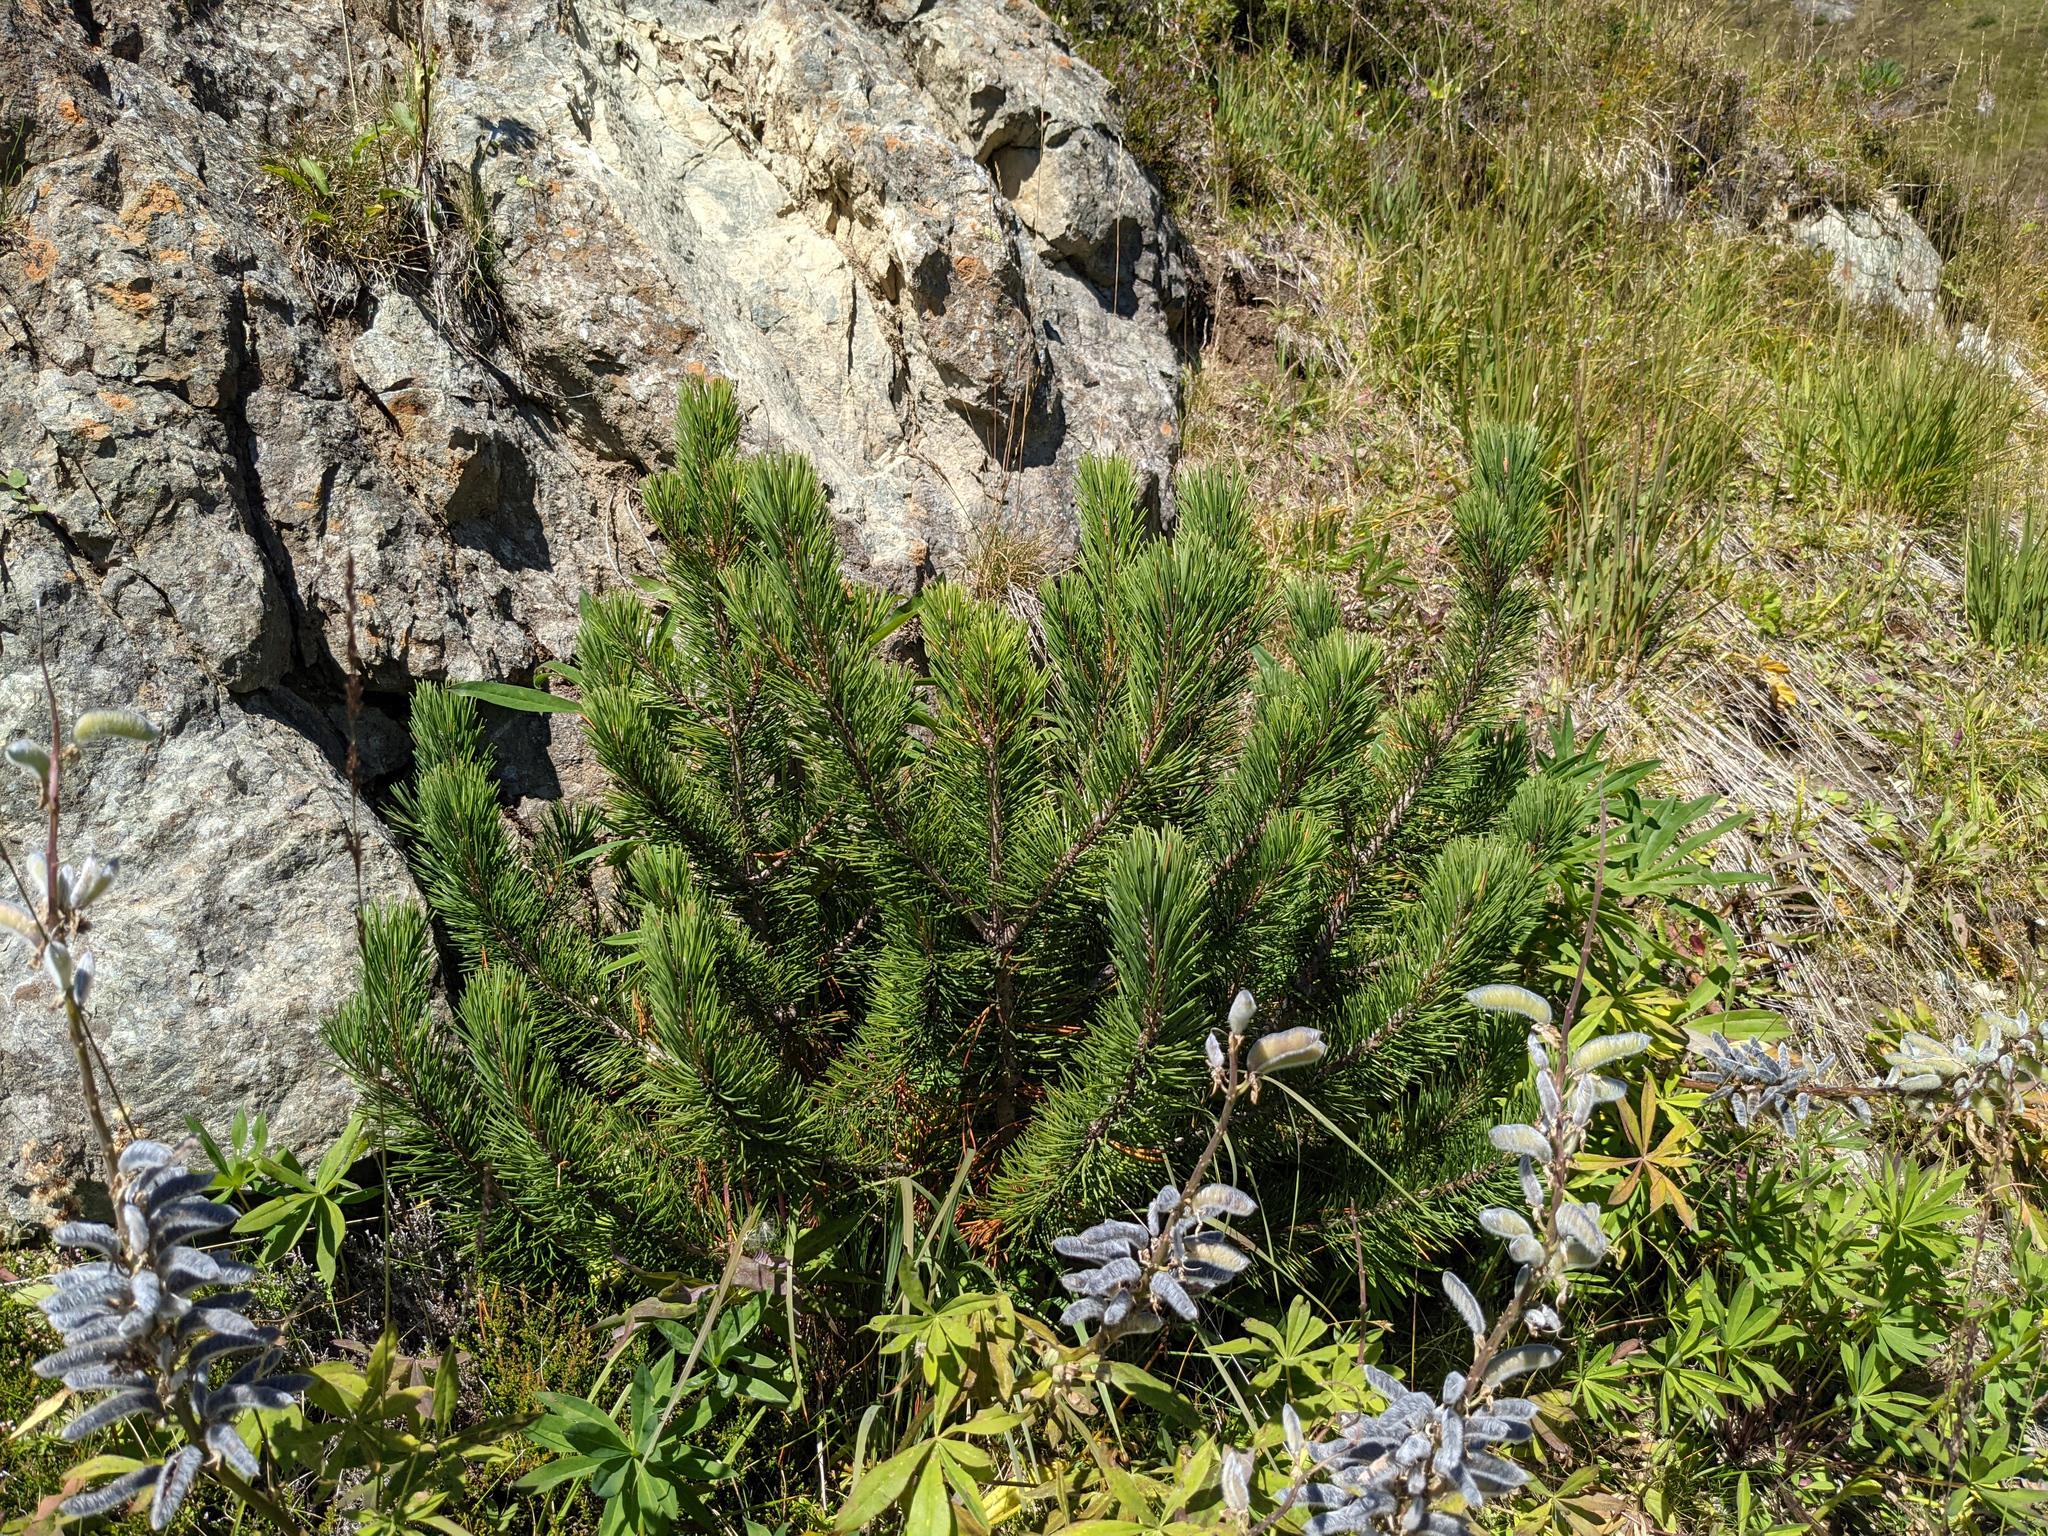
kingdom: Plantae
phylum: Tracheophyta
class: Pinopsida
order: Pinales
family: Pinaceae
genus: Pinus
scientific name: Pinus mugo
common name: Mugo pine
